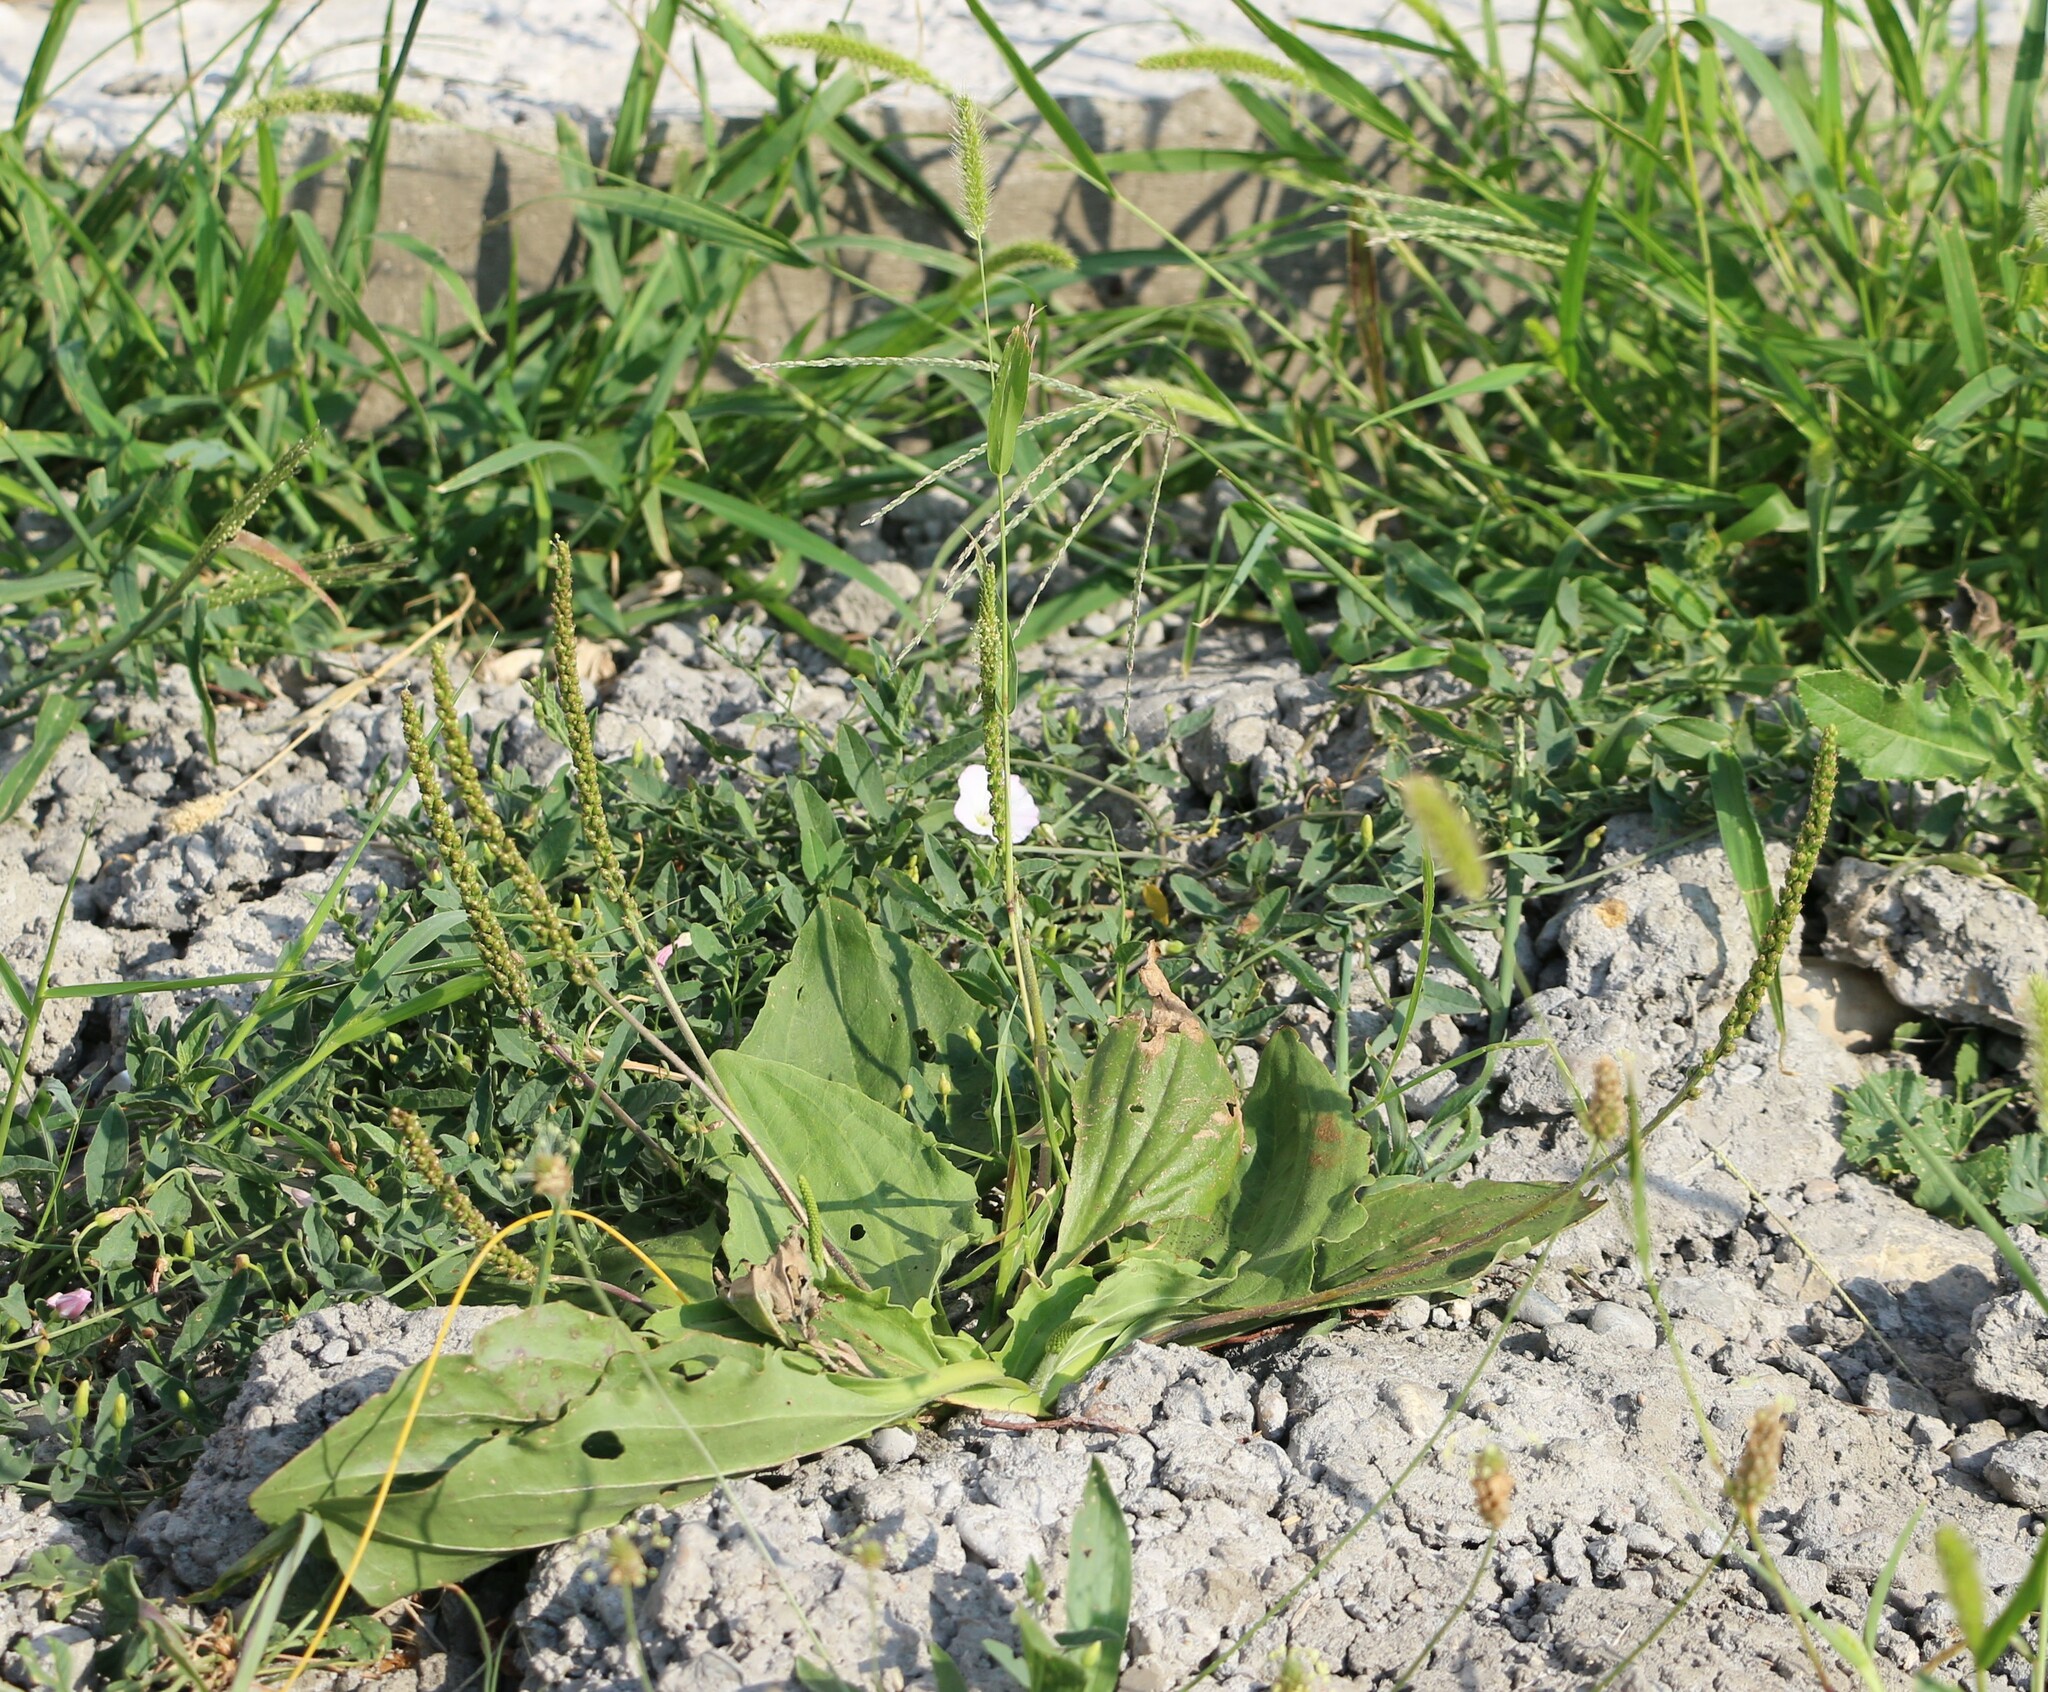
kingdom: Plantae
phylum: Tracheophyta
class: Magnoliopsida
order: Lamiales
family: Plantaginaceae
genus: Plantago
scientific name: Plantago major
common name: Common plantain
